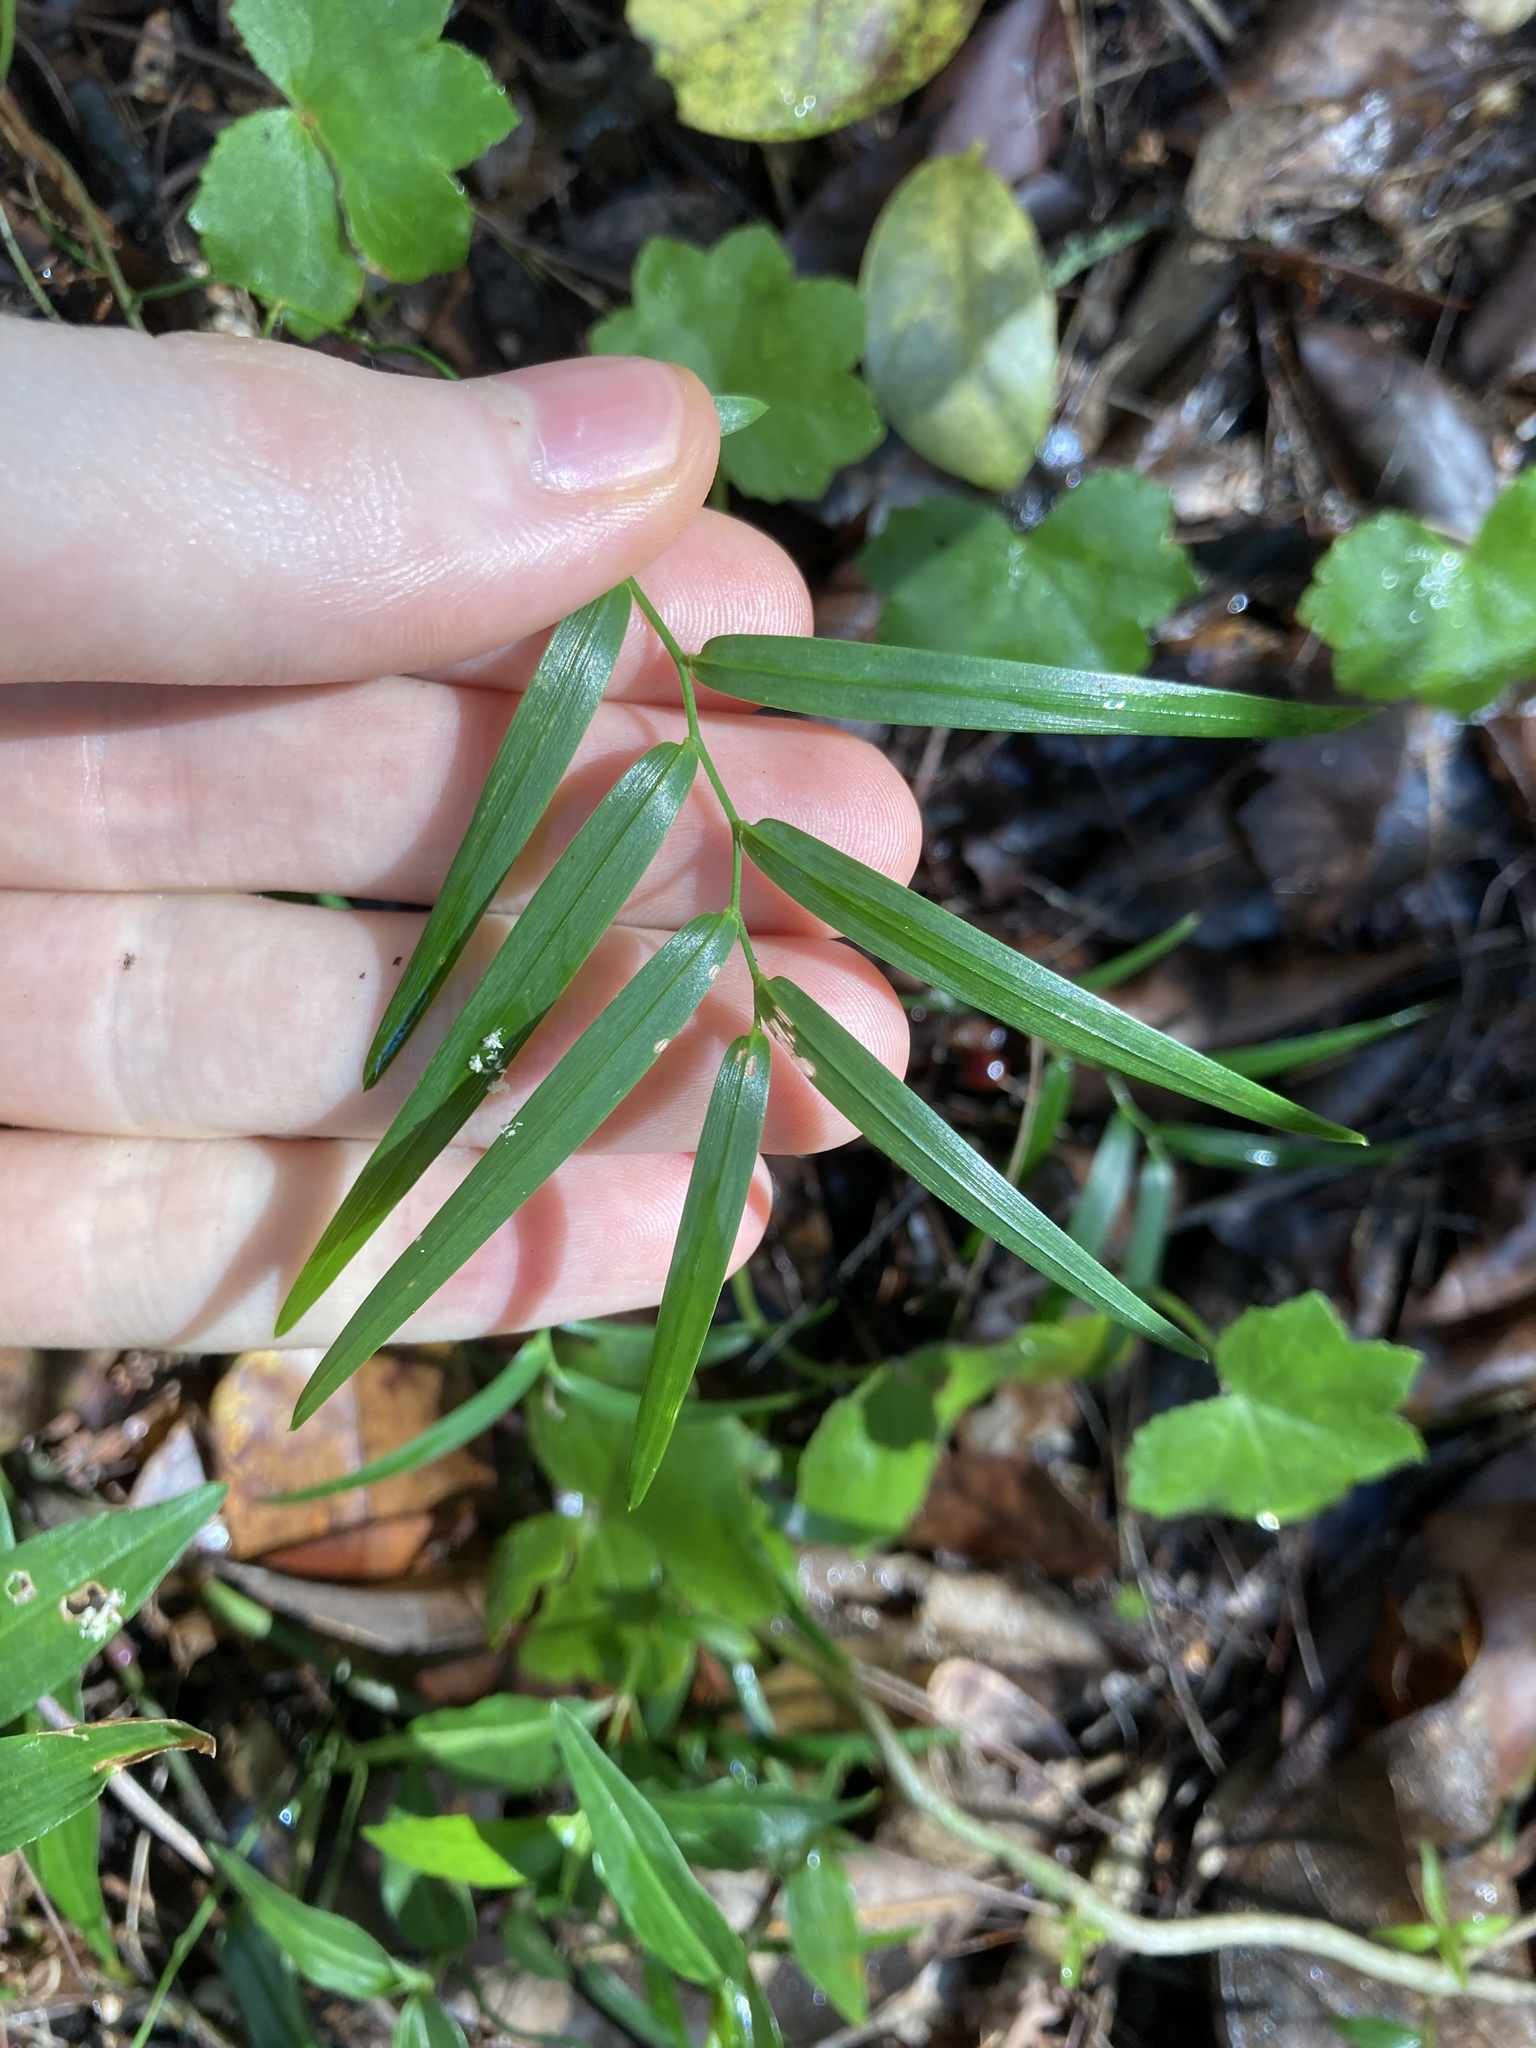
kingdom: Plantae
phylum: Tracheophyta
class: Liliopsida
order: Asparagales
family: Asphodelaceae
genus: Geitonoplesium
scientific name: Geitonoplesium cymosum
